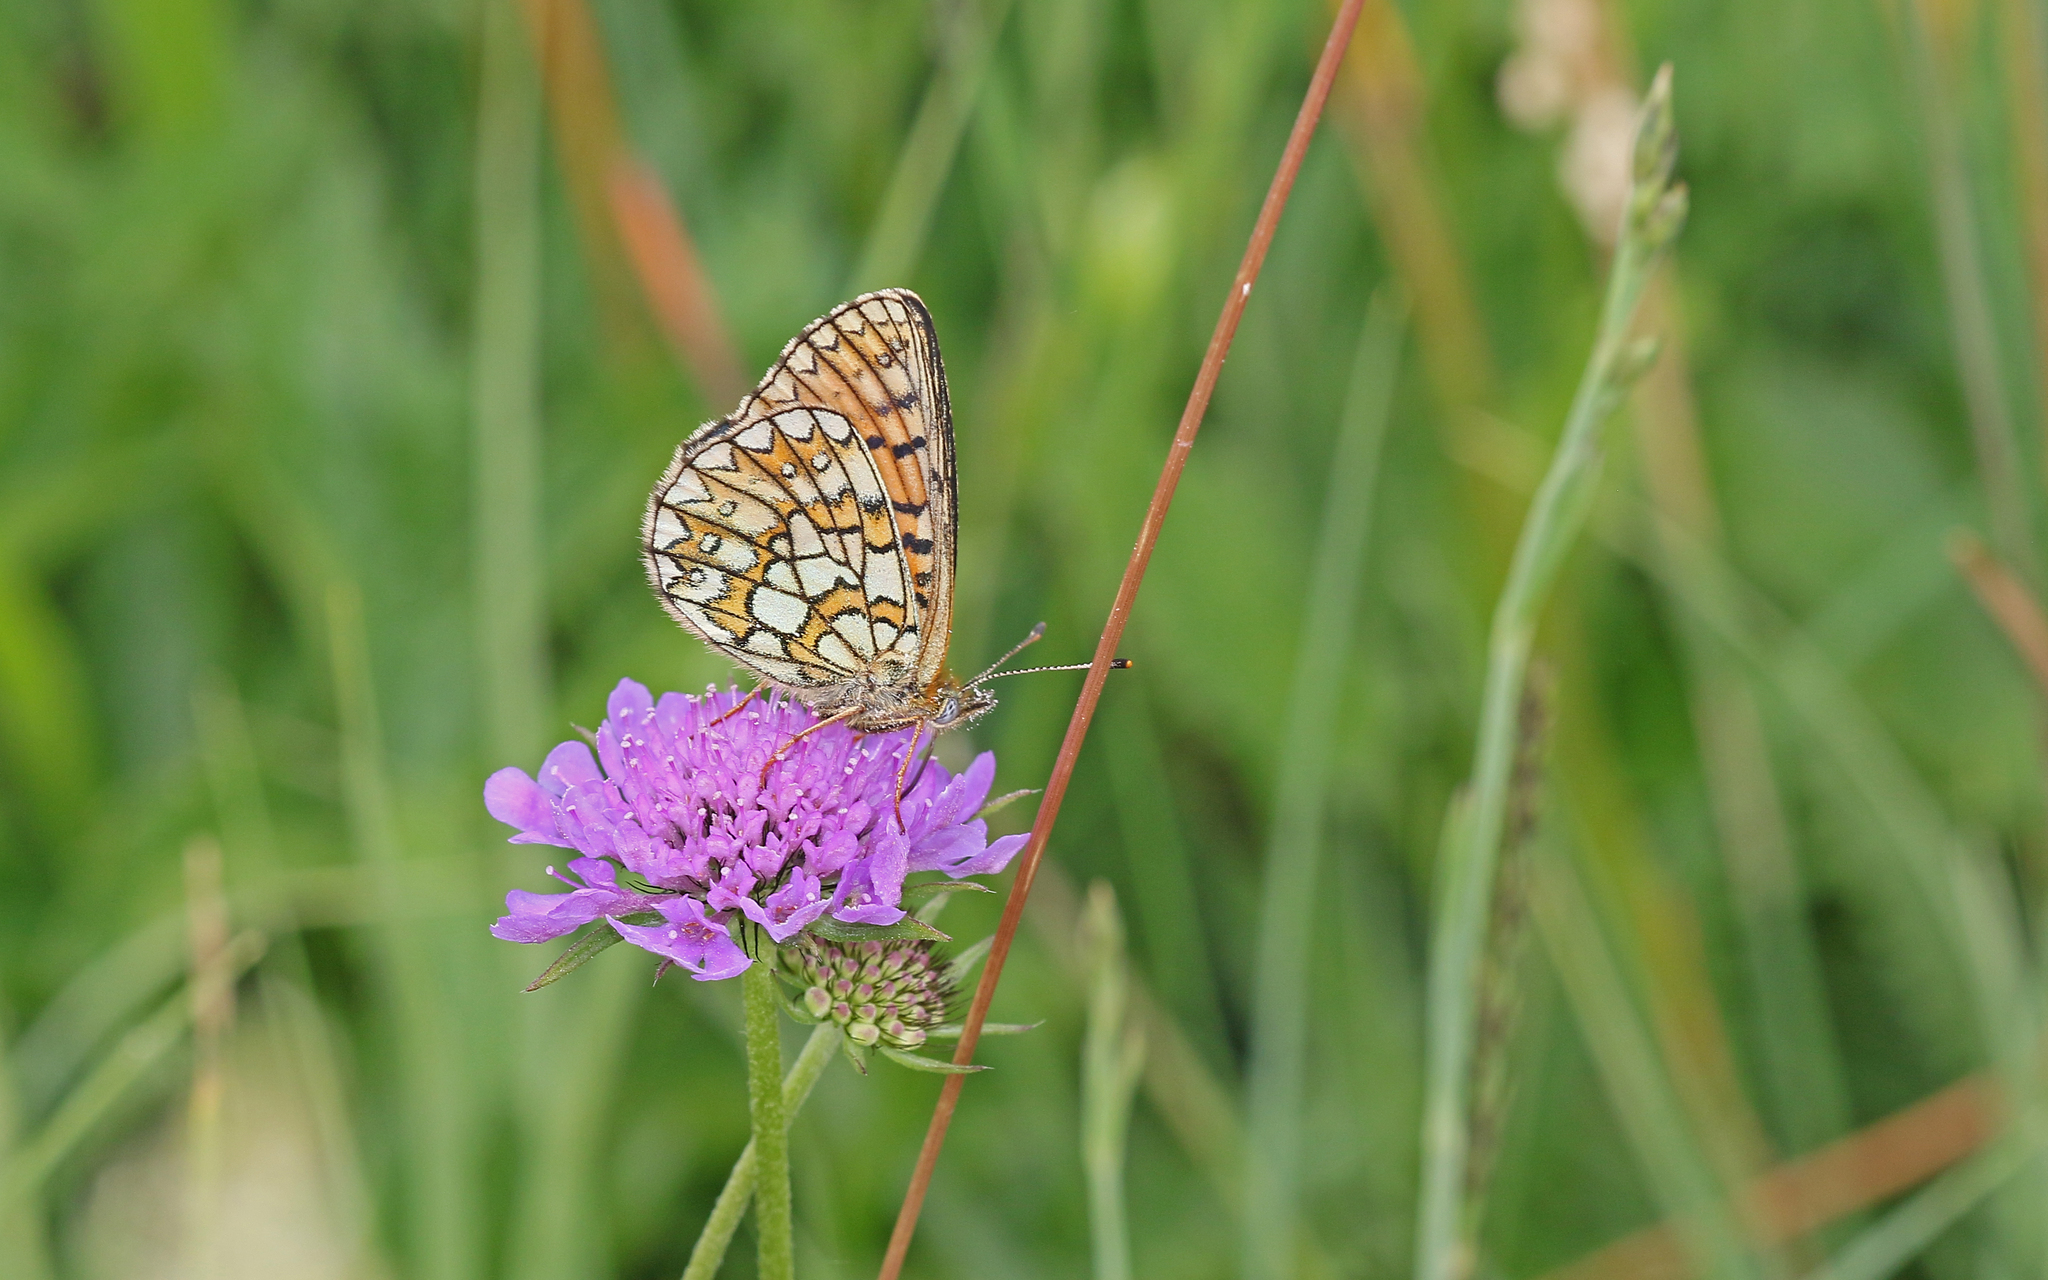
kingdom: Animalia
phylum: Arthropoda
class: Insecta
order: Lepidoptera
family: Nymphalidae
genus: Boloria
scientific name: Boloria eunomia
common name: Bog fritillary
